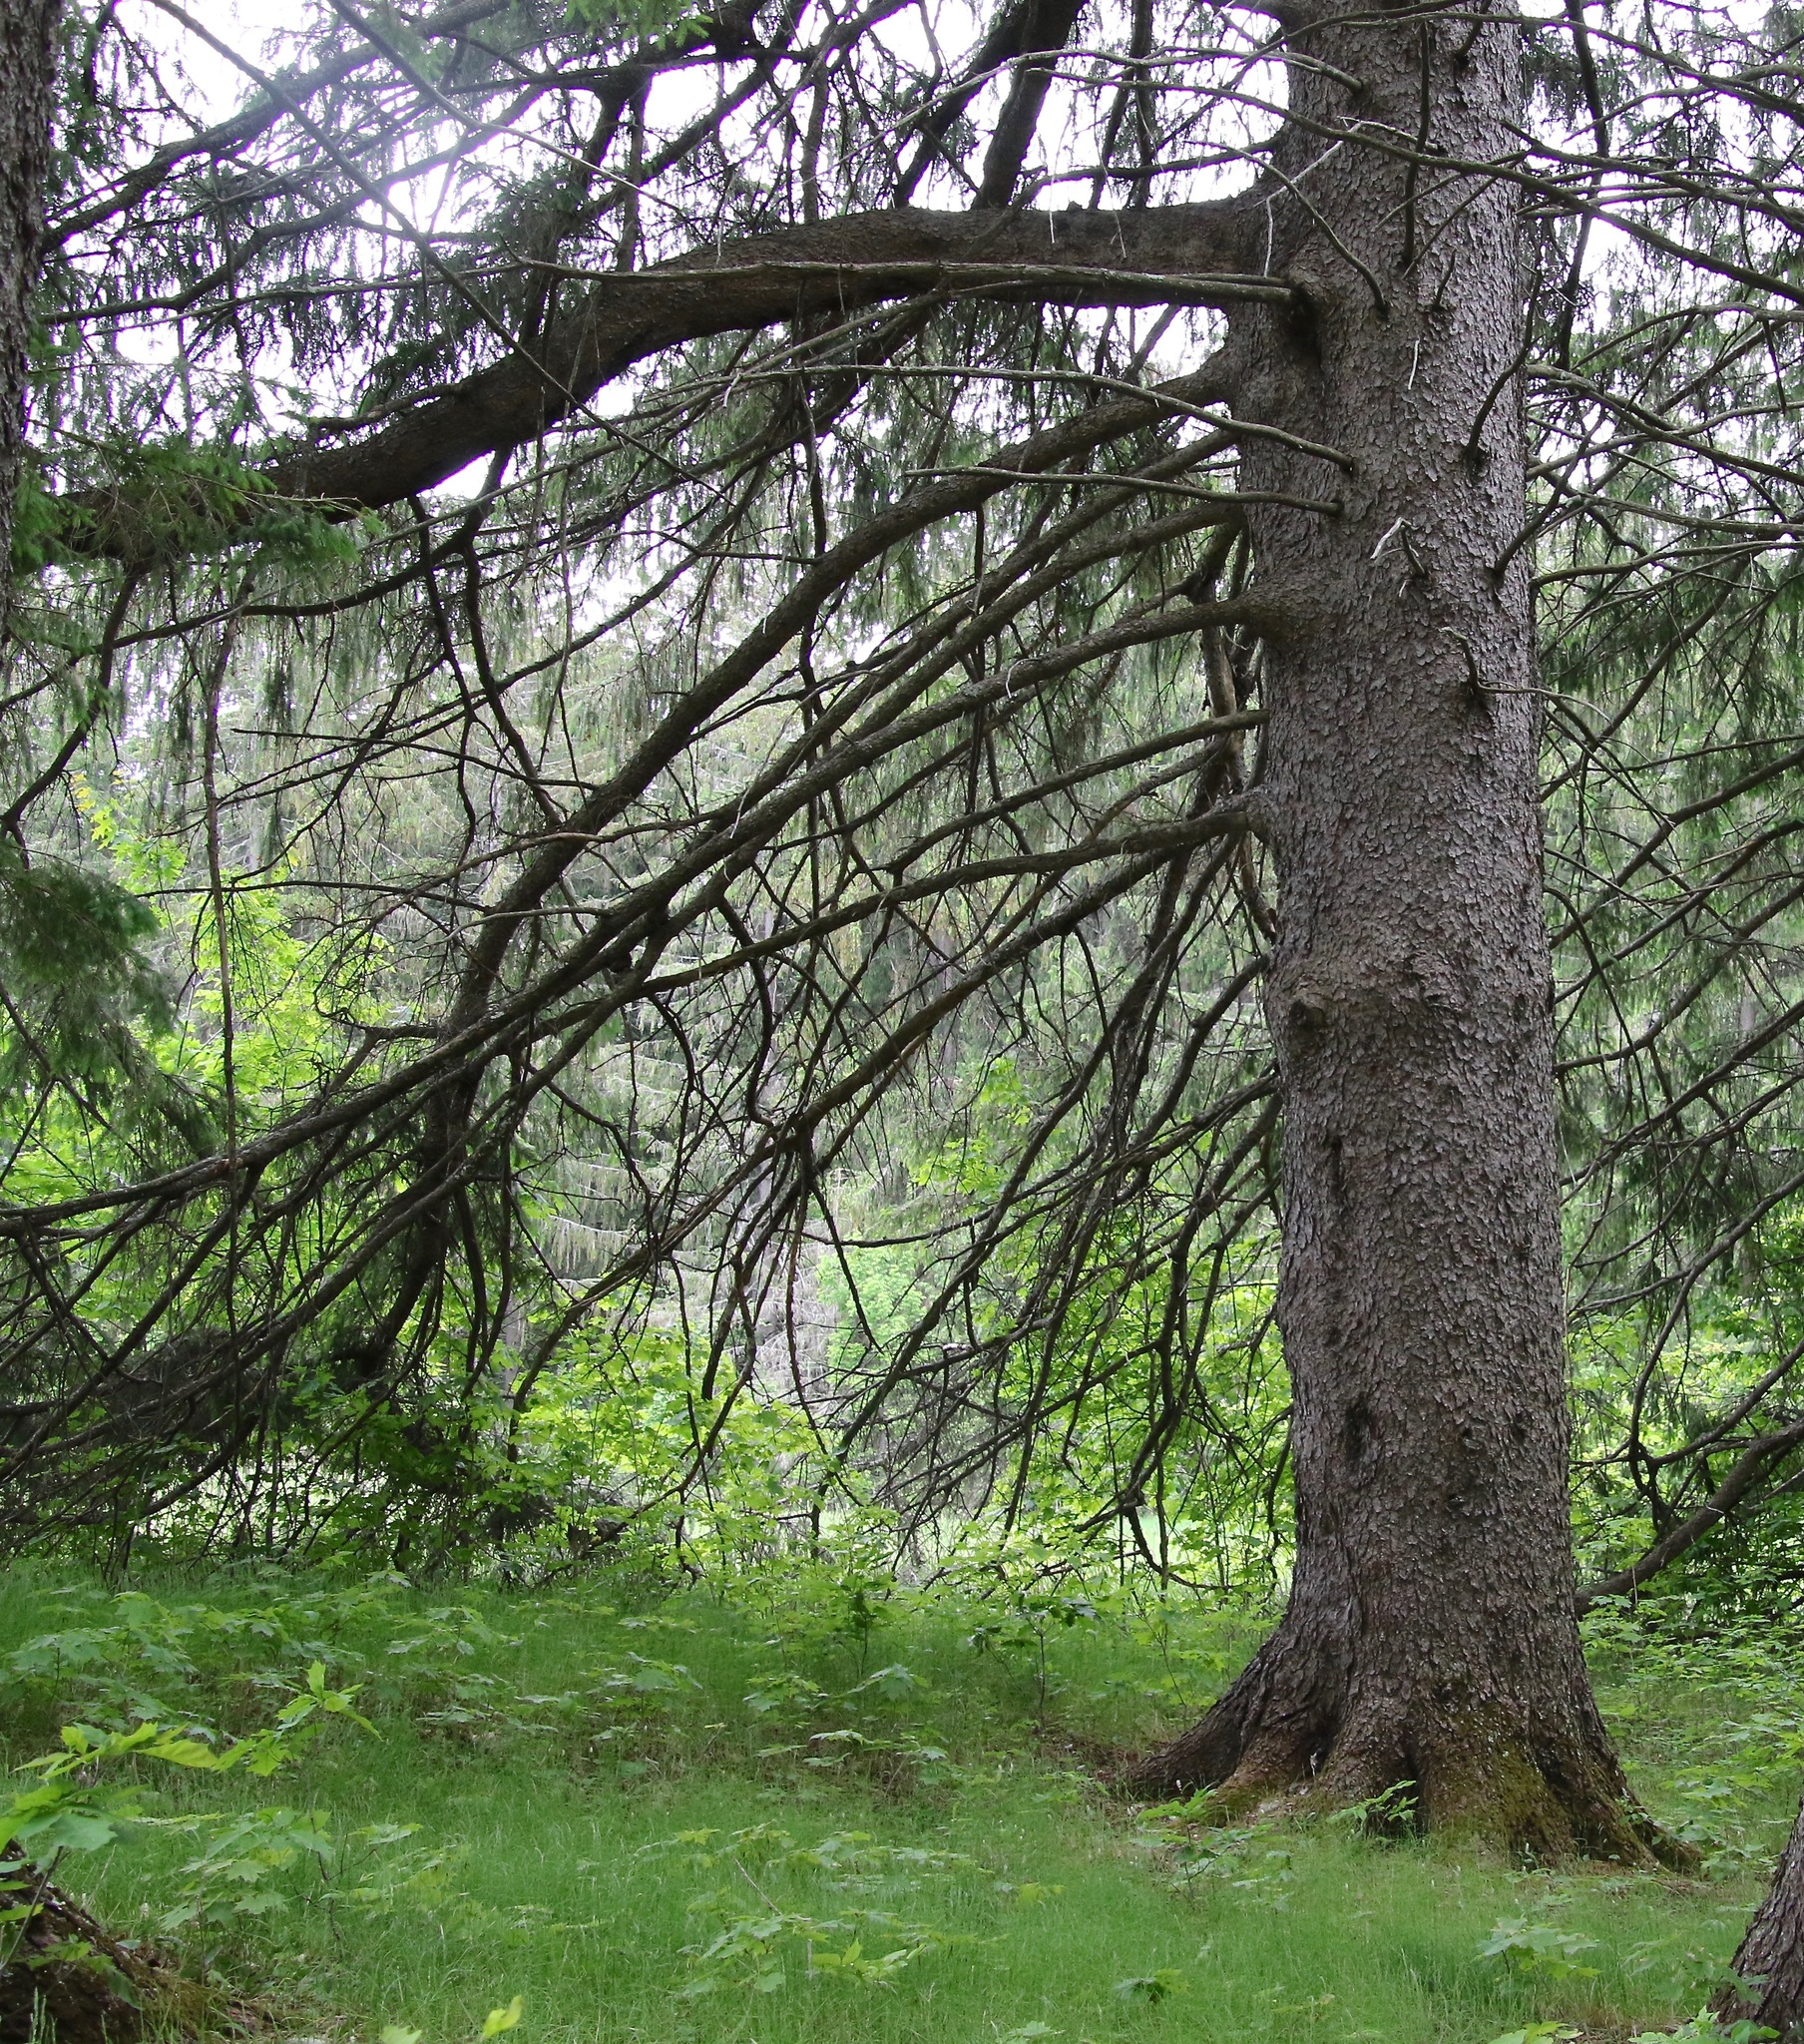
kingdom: Plantae
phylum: Tracheophyta
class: Pinopsida
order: Pinales
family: Pinaceae
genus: Picea
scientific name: Picea abies
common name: Norway spruce
